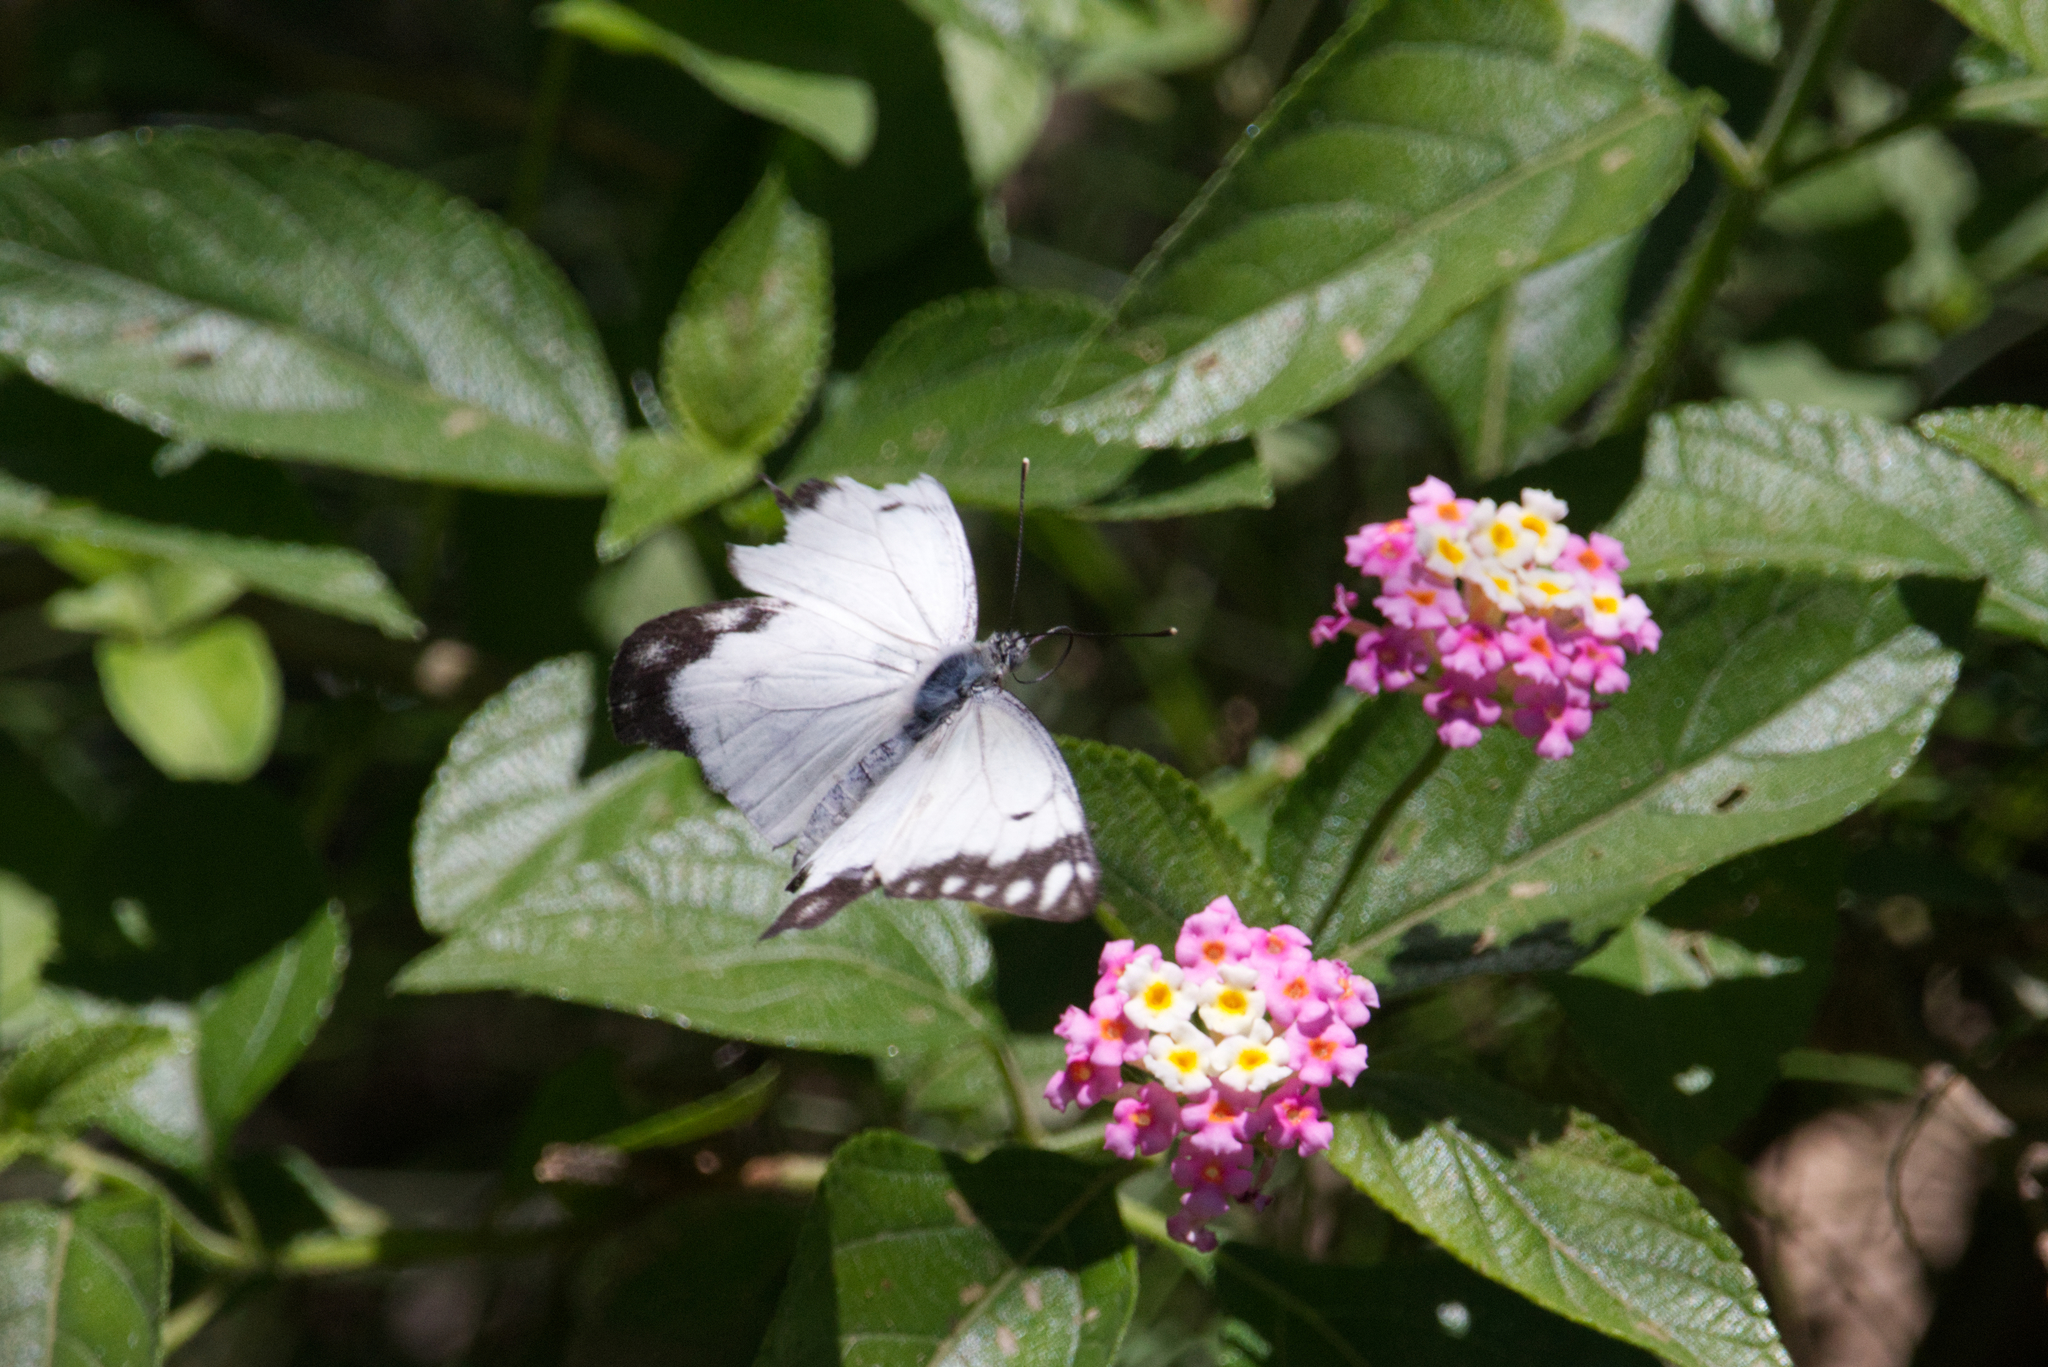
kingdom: Animalia
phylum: Arthropoda
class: Insecta
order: Lepidoptera
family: Pieridae
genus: Belenois
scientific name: Belenois java
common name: Caper white
